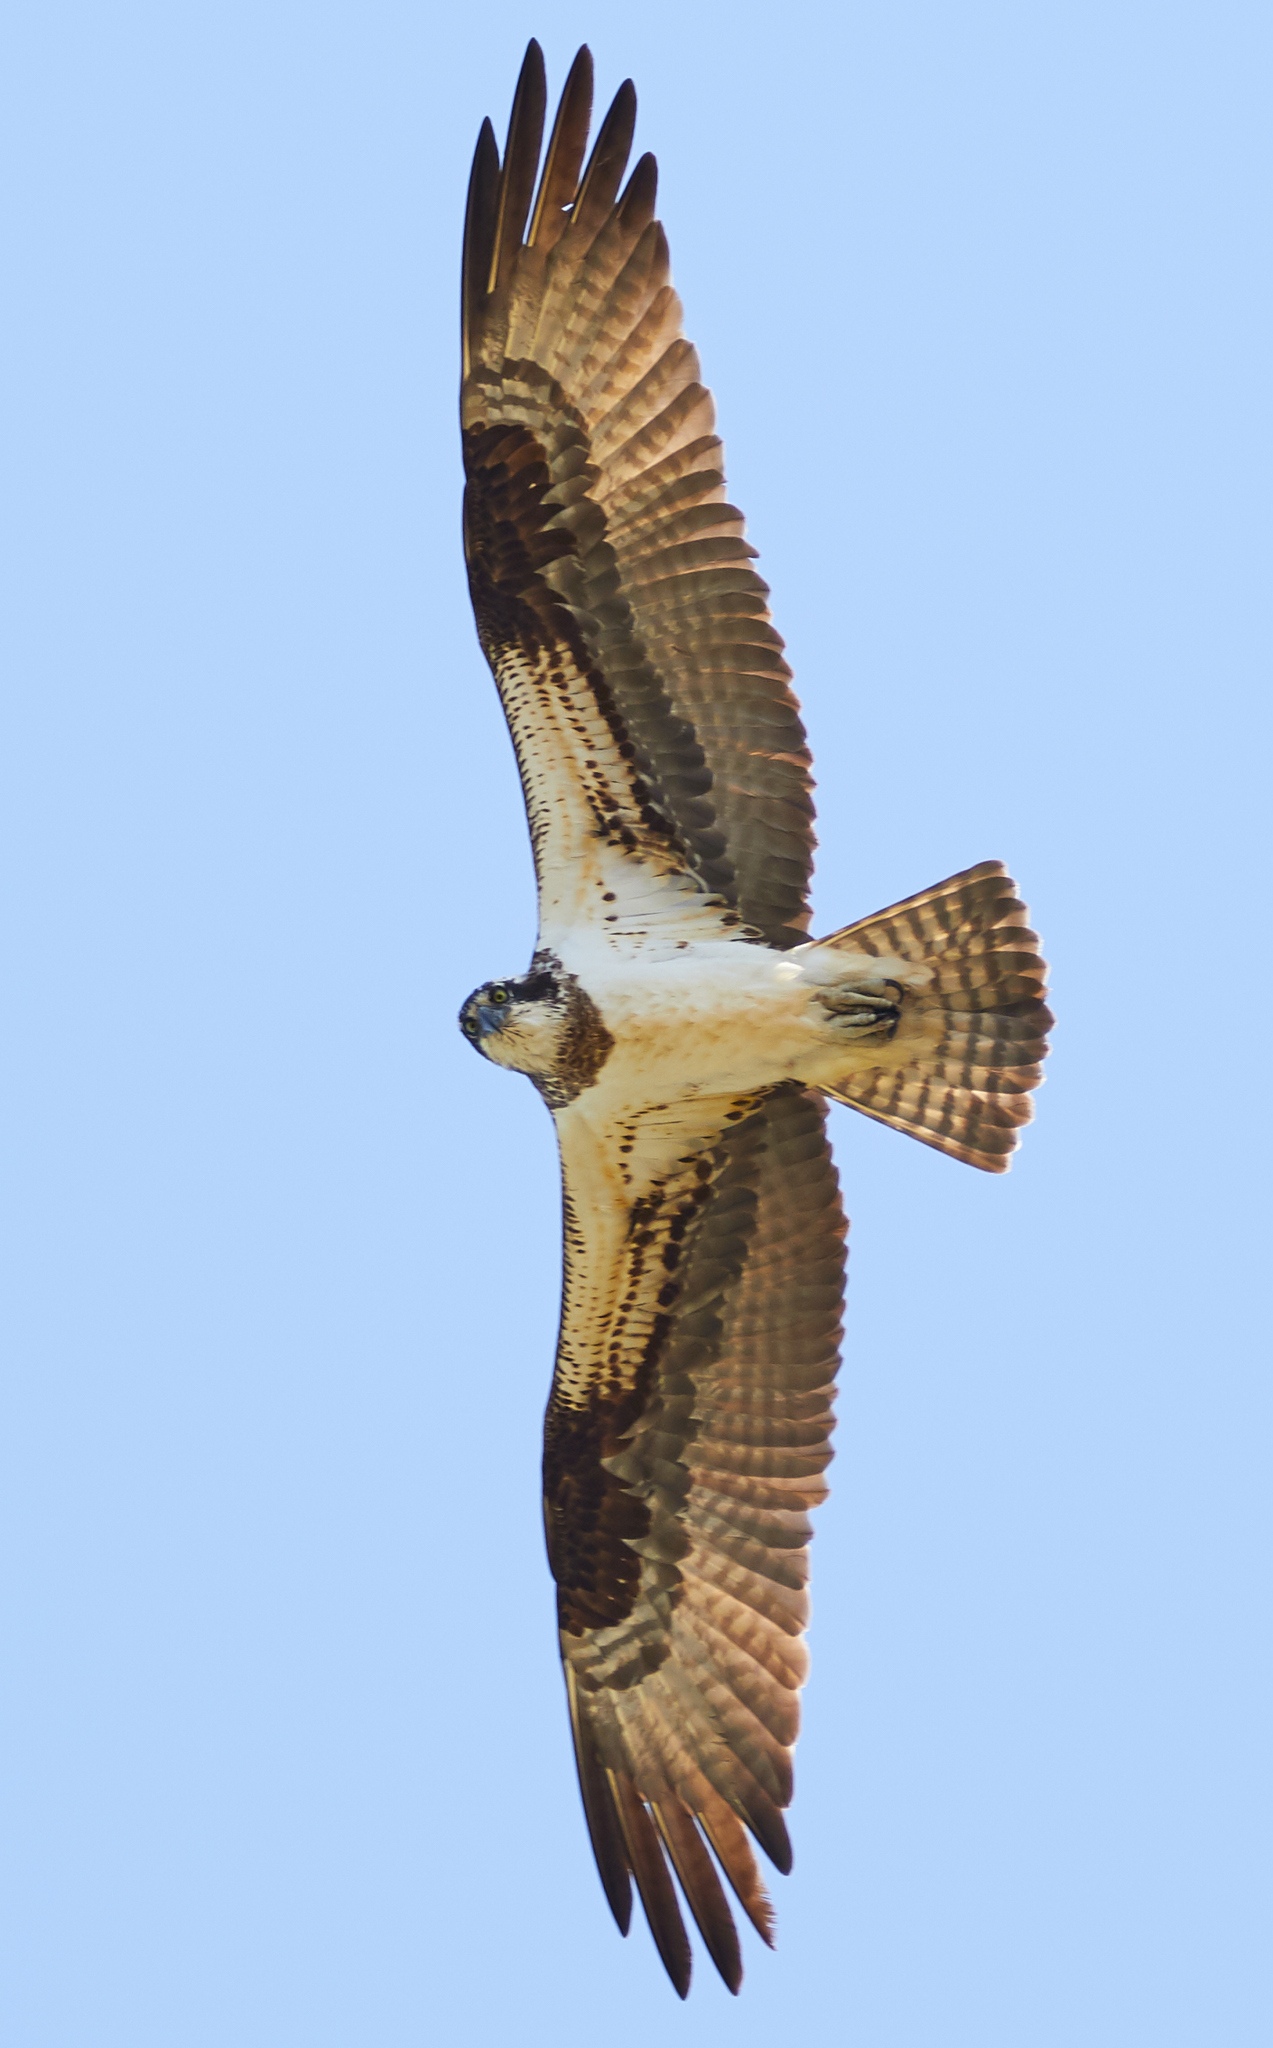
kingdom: Animalia
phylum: Chordata
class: Aves
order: Accipitriformes
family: Pandionidae
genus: Pandion
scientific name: Pandion haliaetus
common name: Osprey
